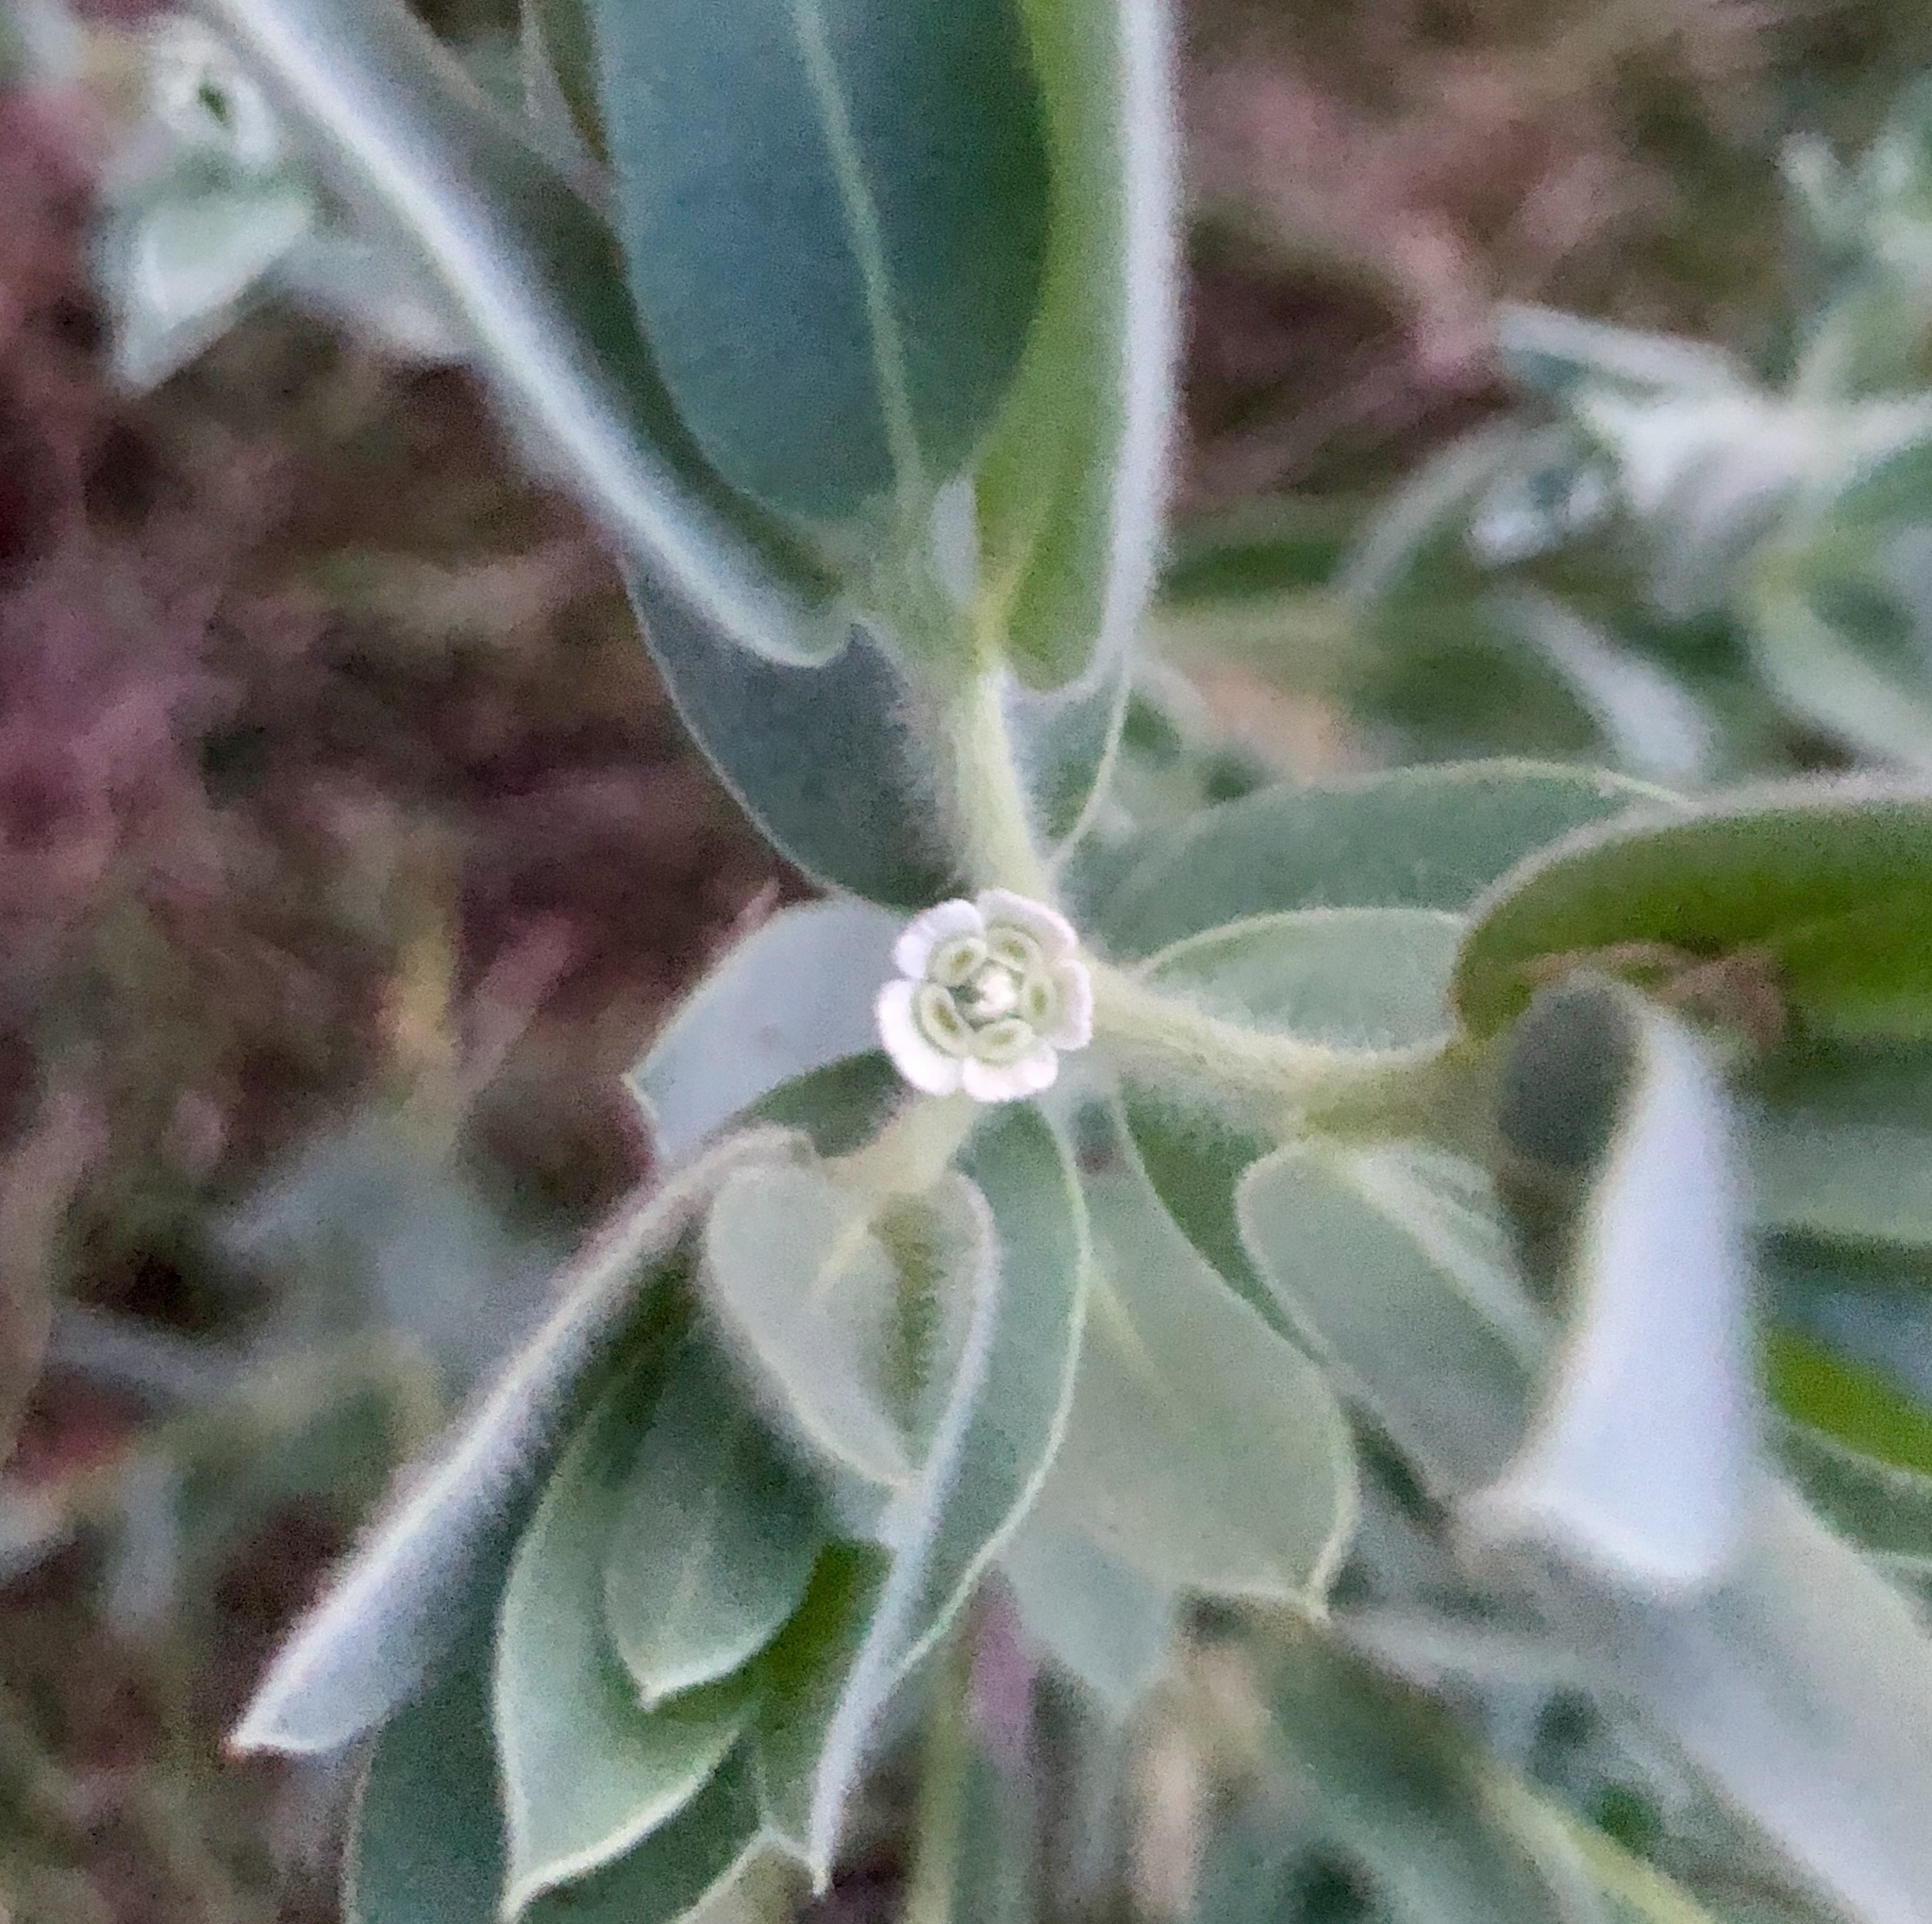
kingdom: Plantae
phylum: Tracheophyta
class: Magnoliopsida
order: Malpighiales
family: Euphorbiaceae
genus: Euphorbia
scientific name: Euphorbia bicolor
